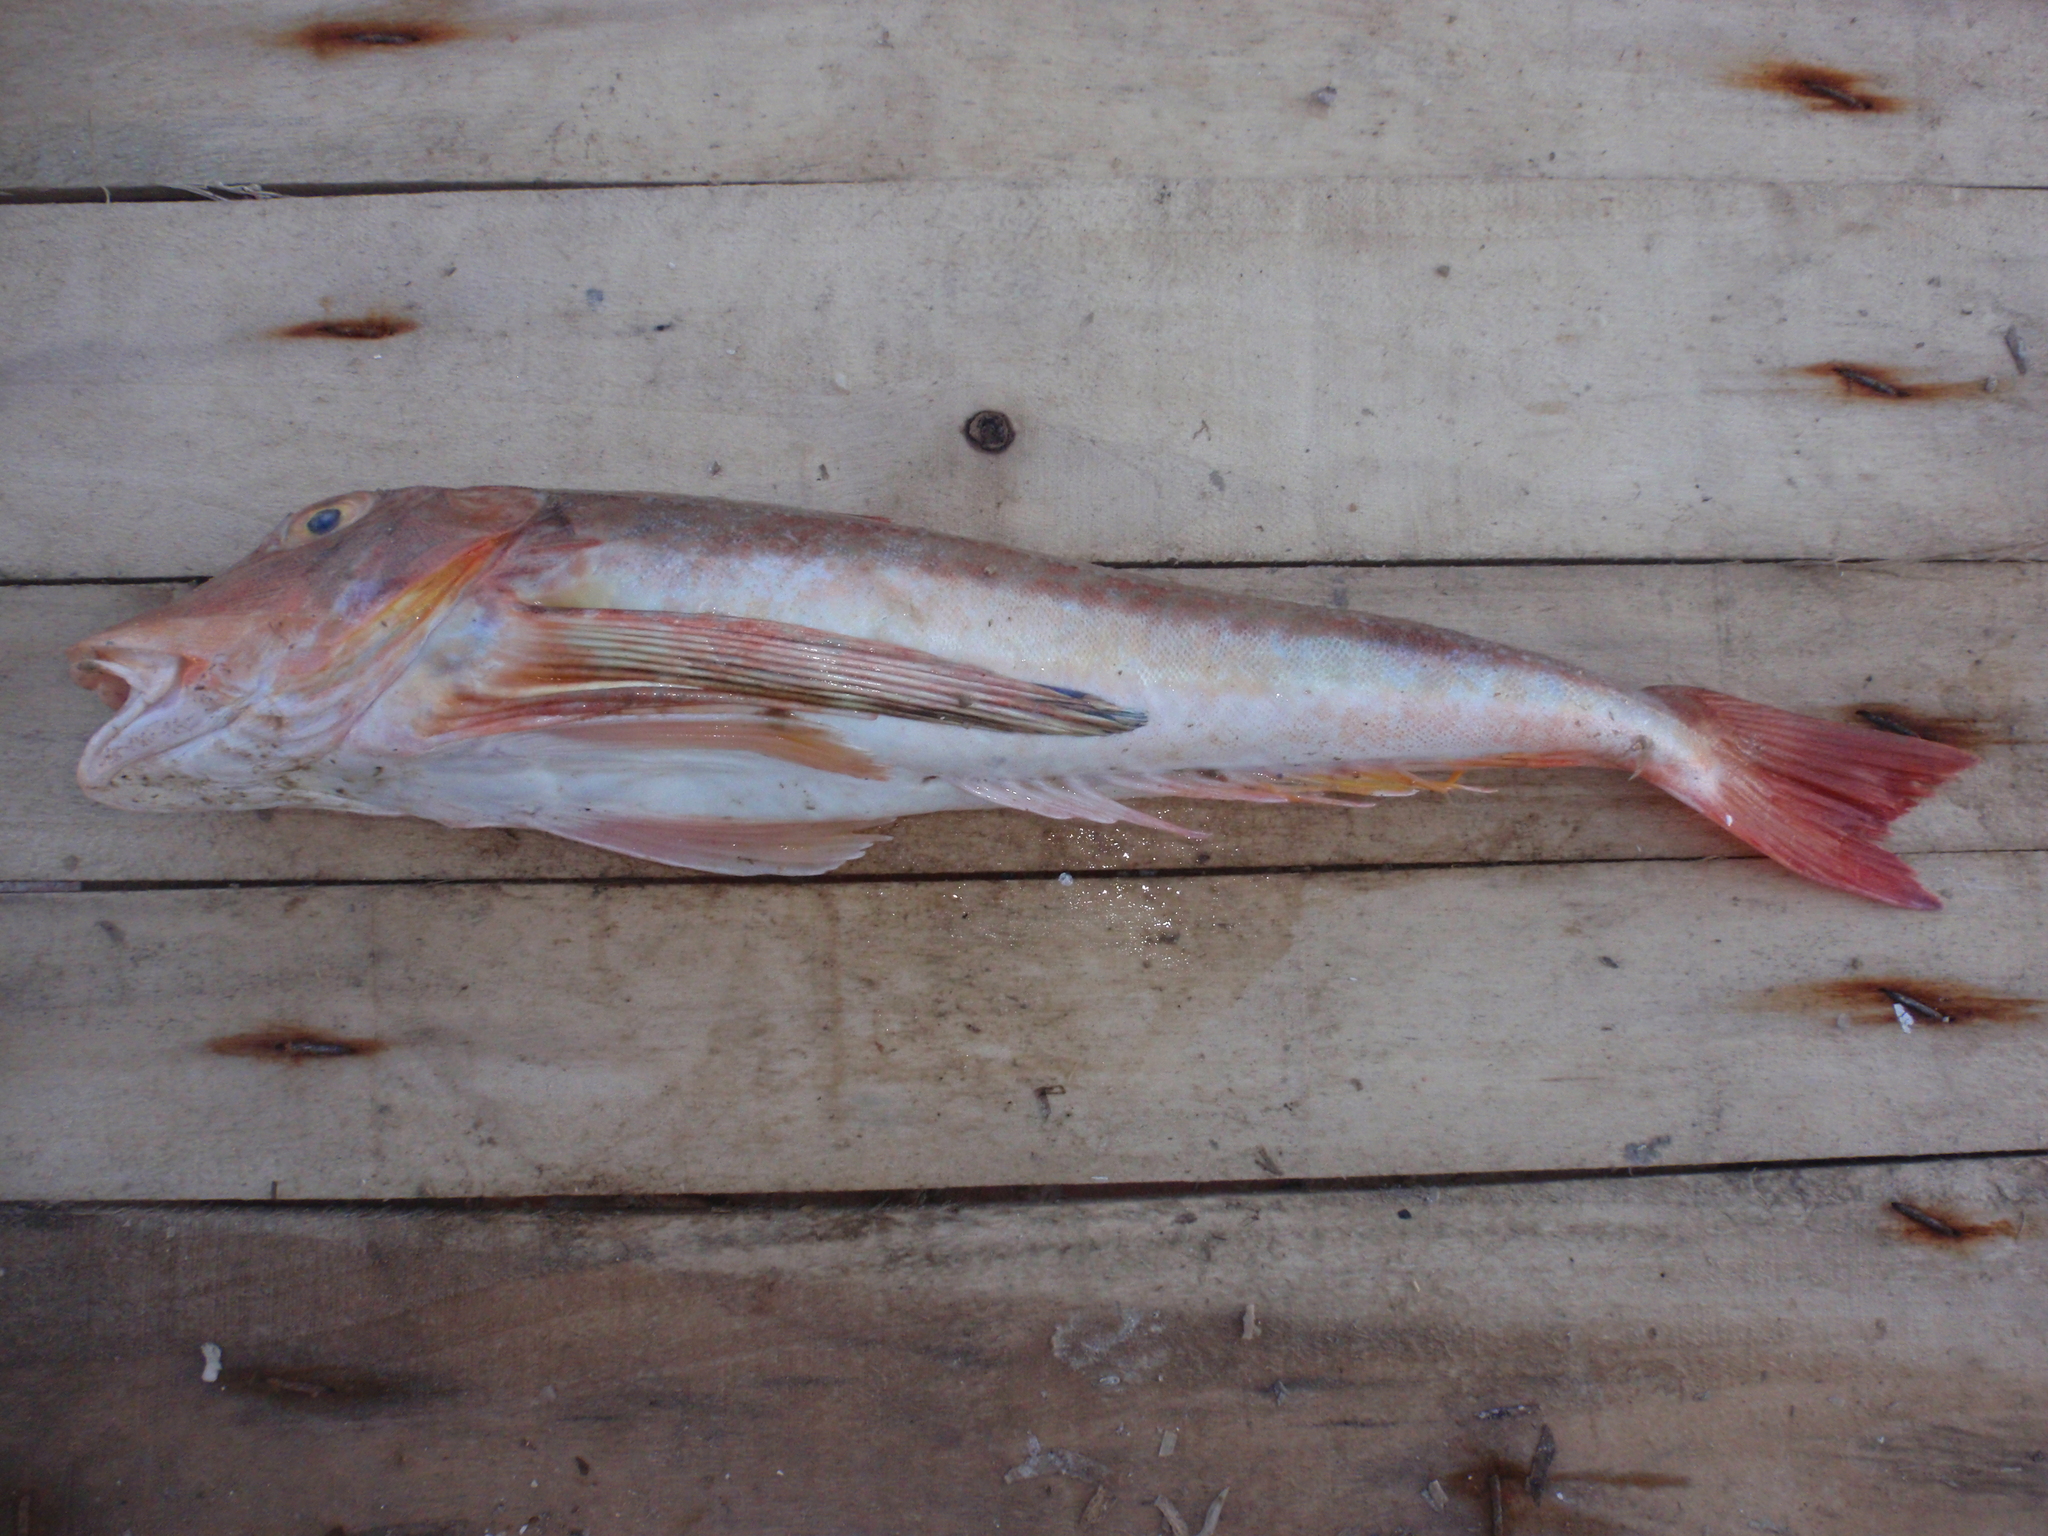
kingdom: Animalia
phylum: Chordata
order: Scorpaeniformes
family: Triglidae
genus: Chelidonichthys
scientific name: Chelidonichthys lucerna
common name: Tub gurnard
